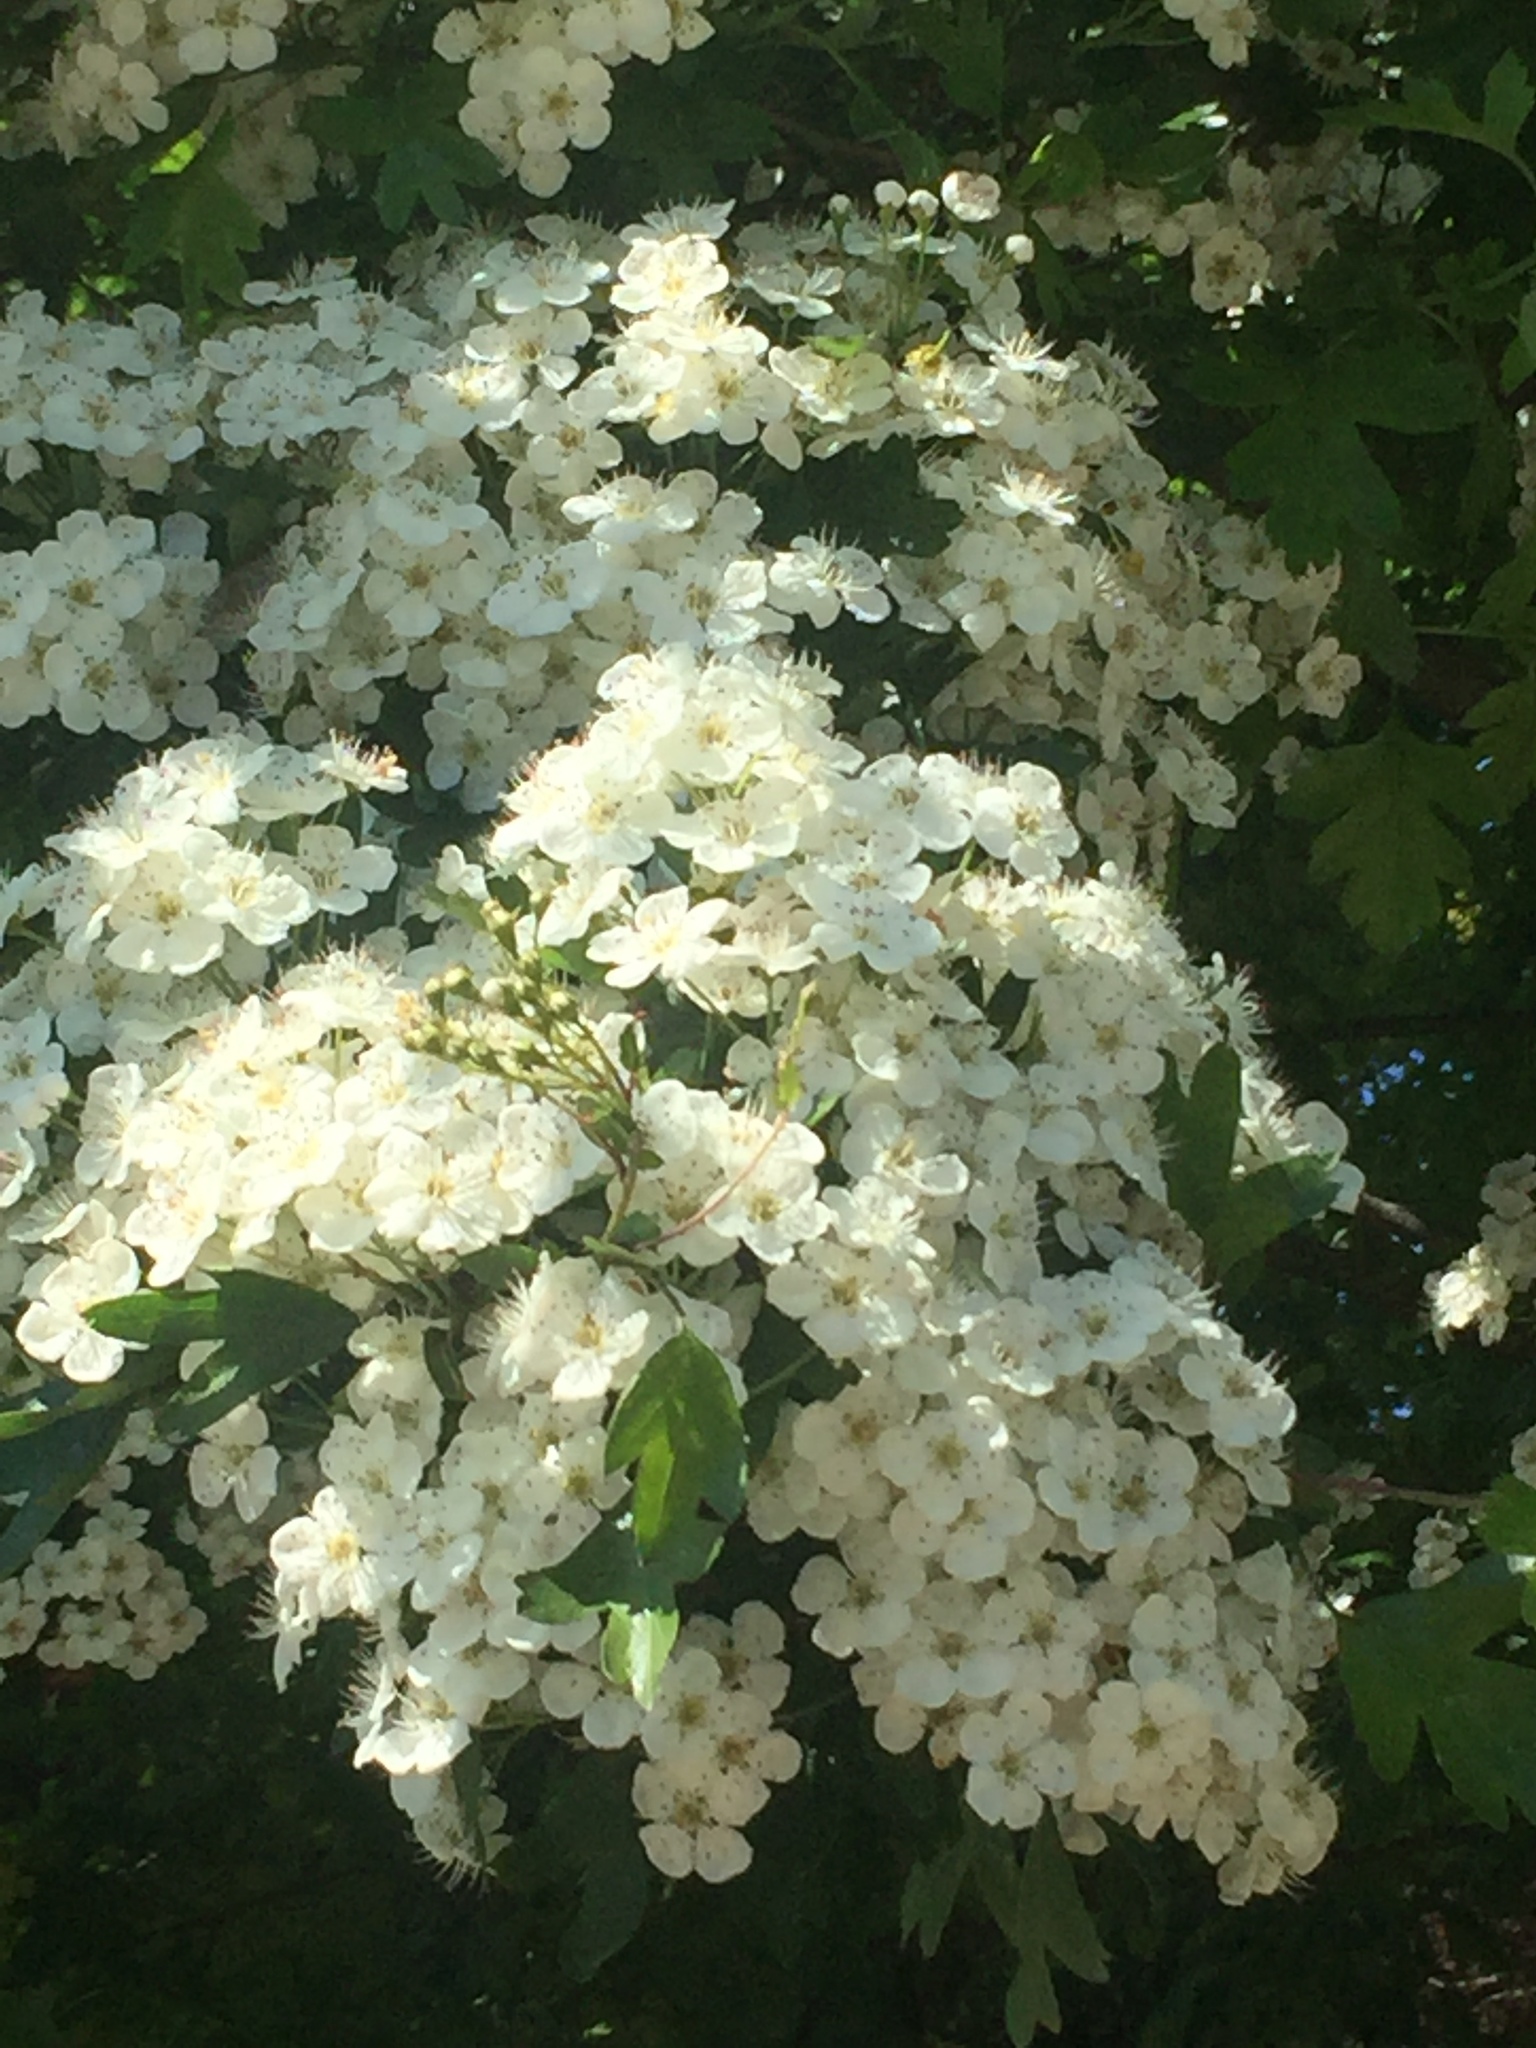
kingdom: Plantae
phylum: Tracheophyta
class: Magnoliopsida
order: Rosales
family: Rosaceae
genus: Crataegus
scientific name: Crataegus monogyna
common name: Hawthorn
